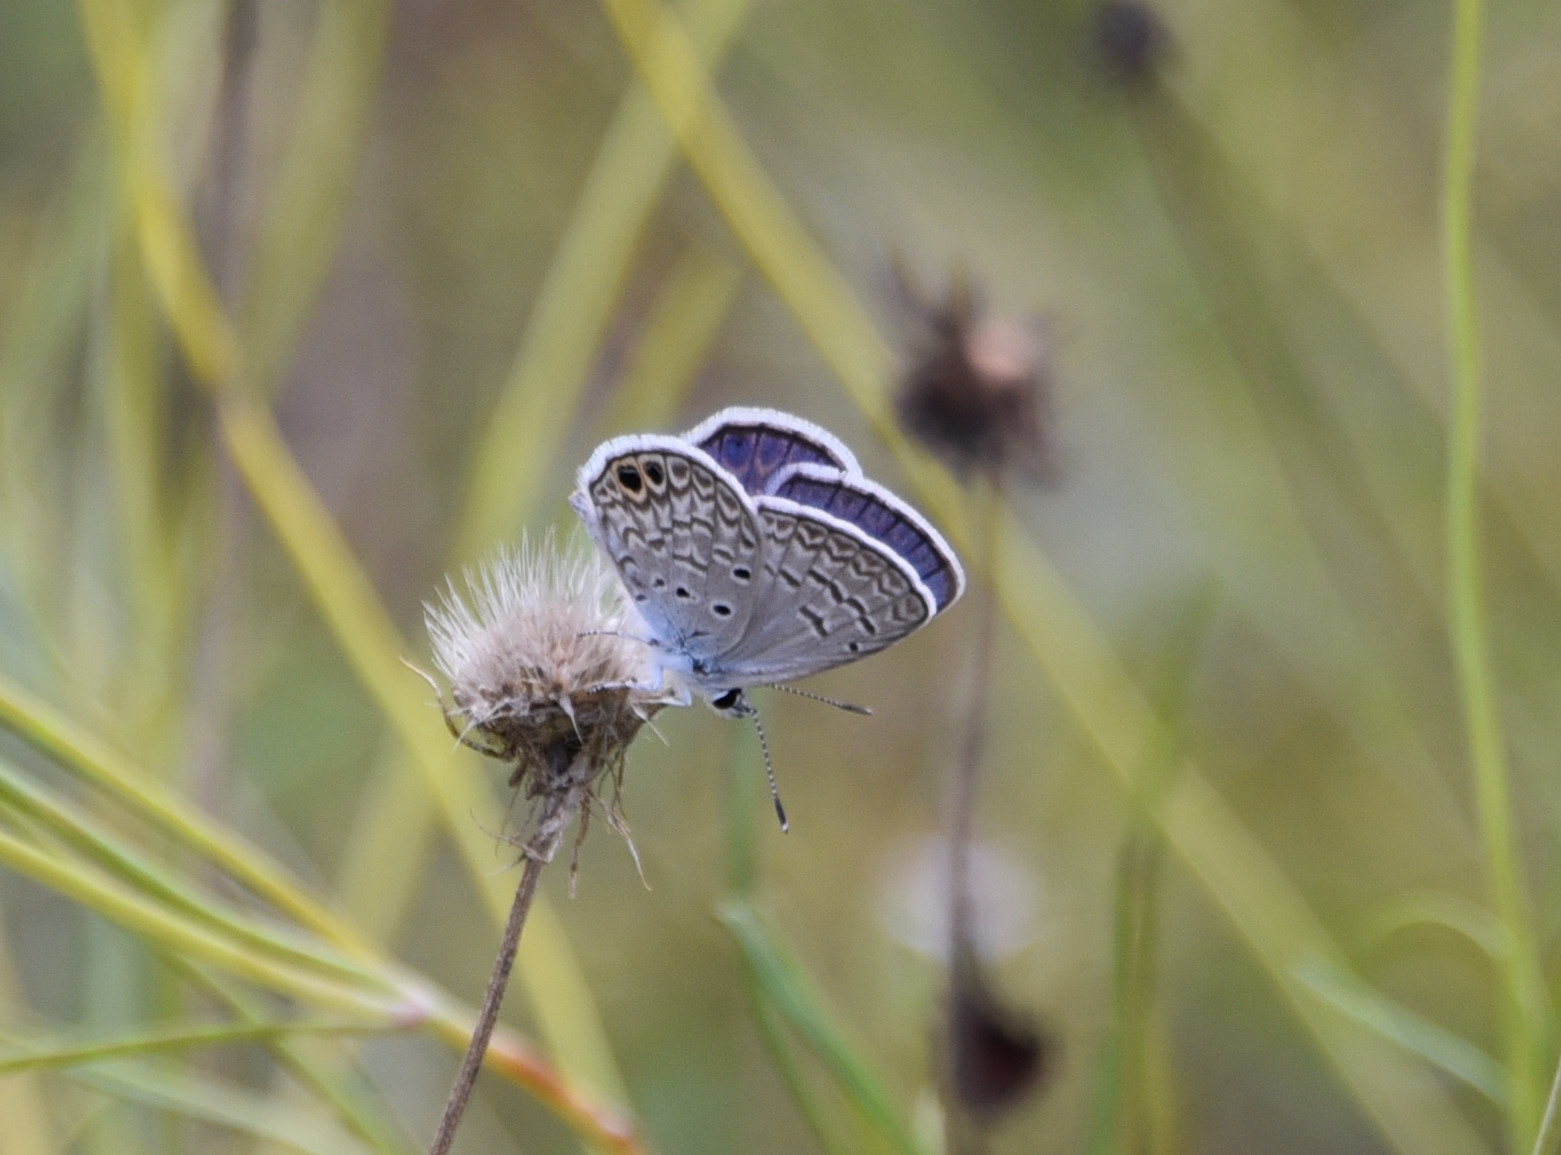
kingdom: Animalia
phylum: Arthropoda
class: Insecta
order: Lepidoptera
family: Lycaenidae
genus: Hemiargus
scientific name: Hemiargus ceraunus
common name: Ceraunus blue
